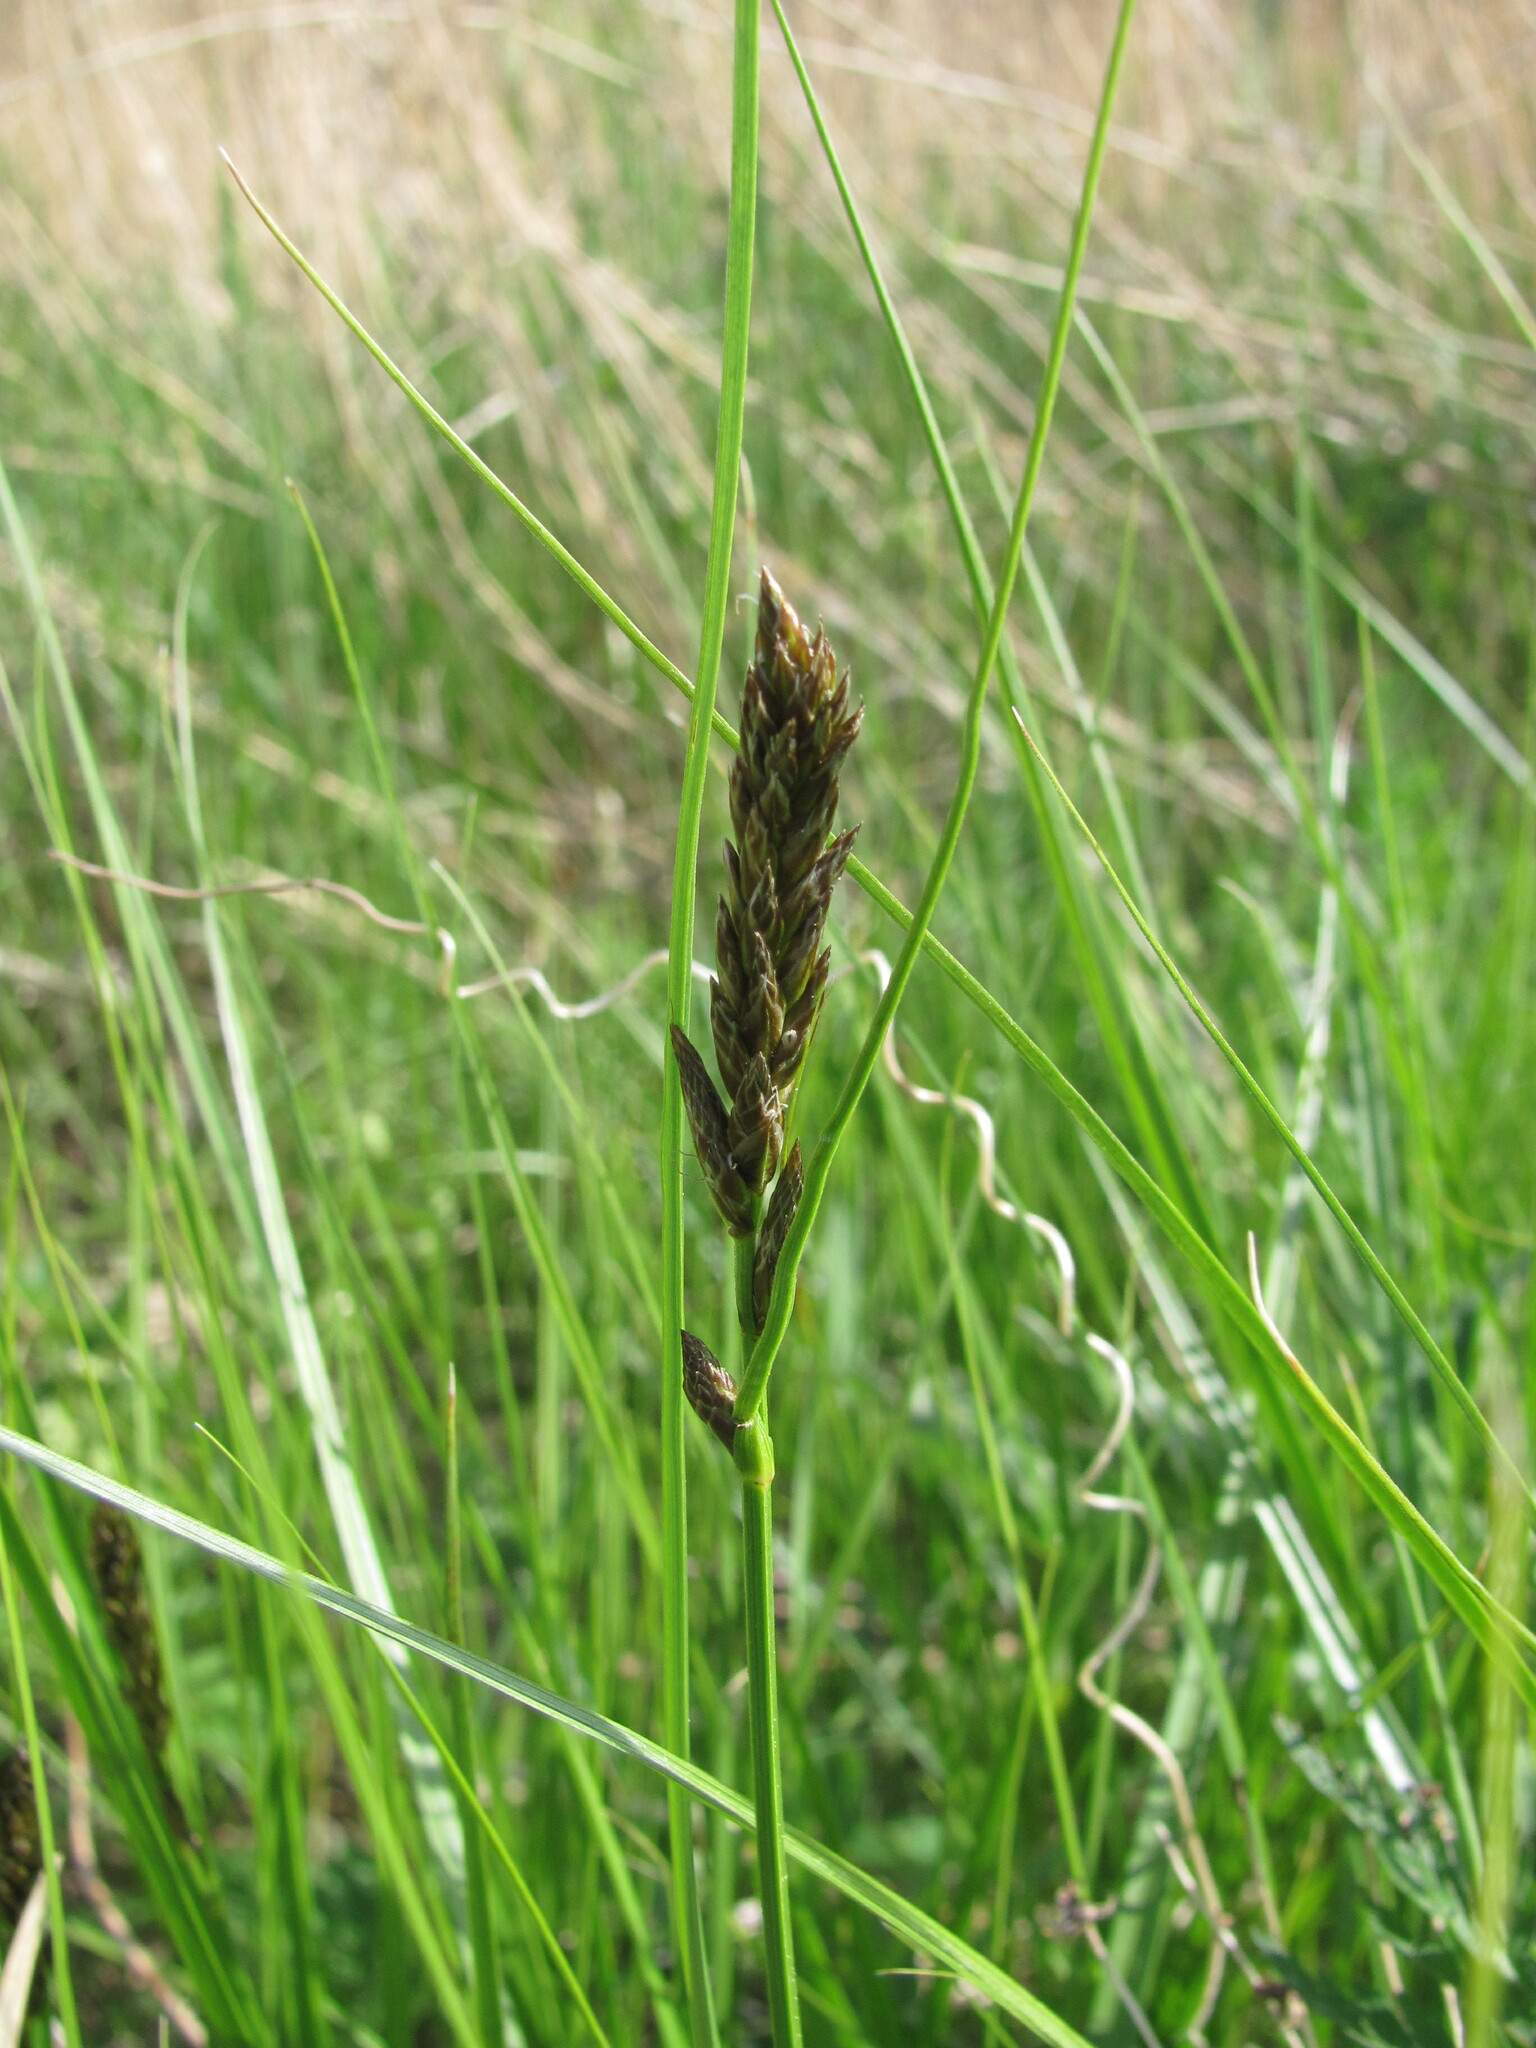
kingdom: Plantae
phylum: Tracheophyta
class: Liliopsida
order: Poales
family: Cyperaceae
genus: Carex
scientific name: Carex disticha
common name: Brown sedge
